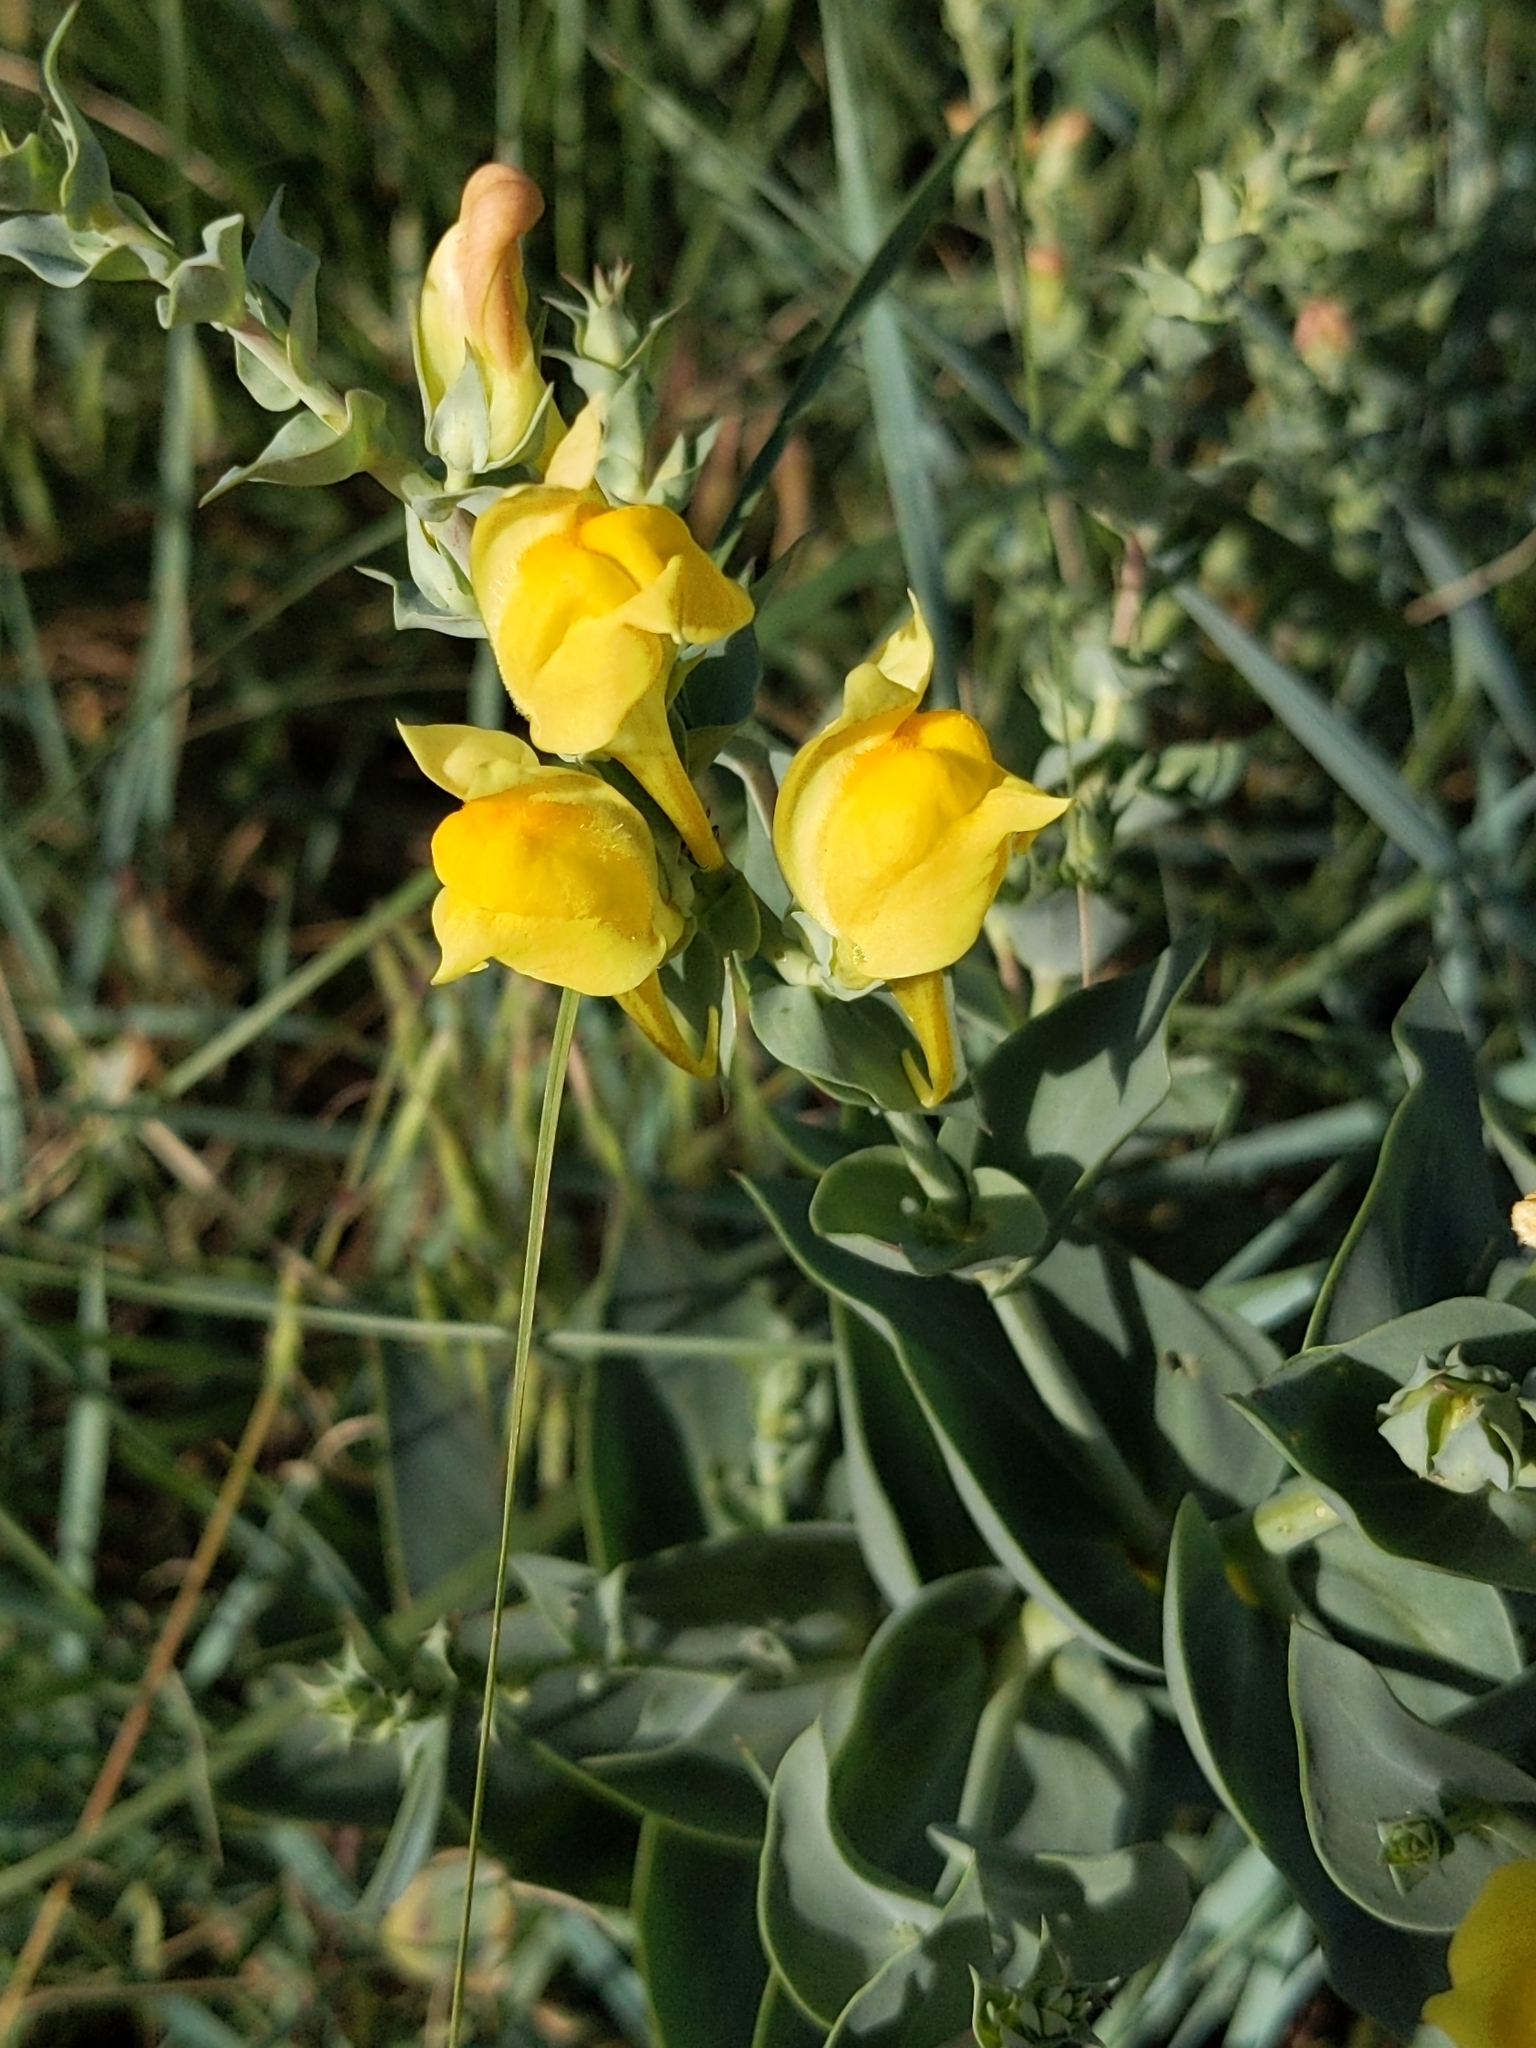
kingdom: Plantae
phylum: Tracheophyta
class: Magnoliopsida
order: Lamiales
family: Plantaginaceae
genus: Linaria
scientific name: Linaria dalmatica
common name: Dalmatian toadflax
